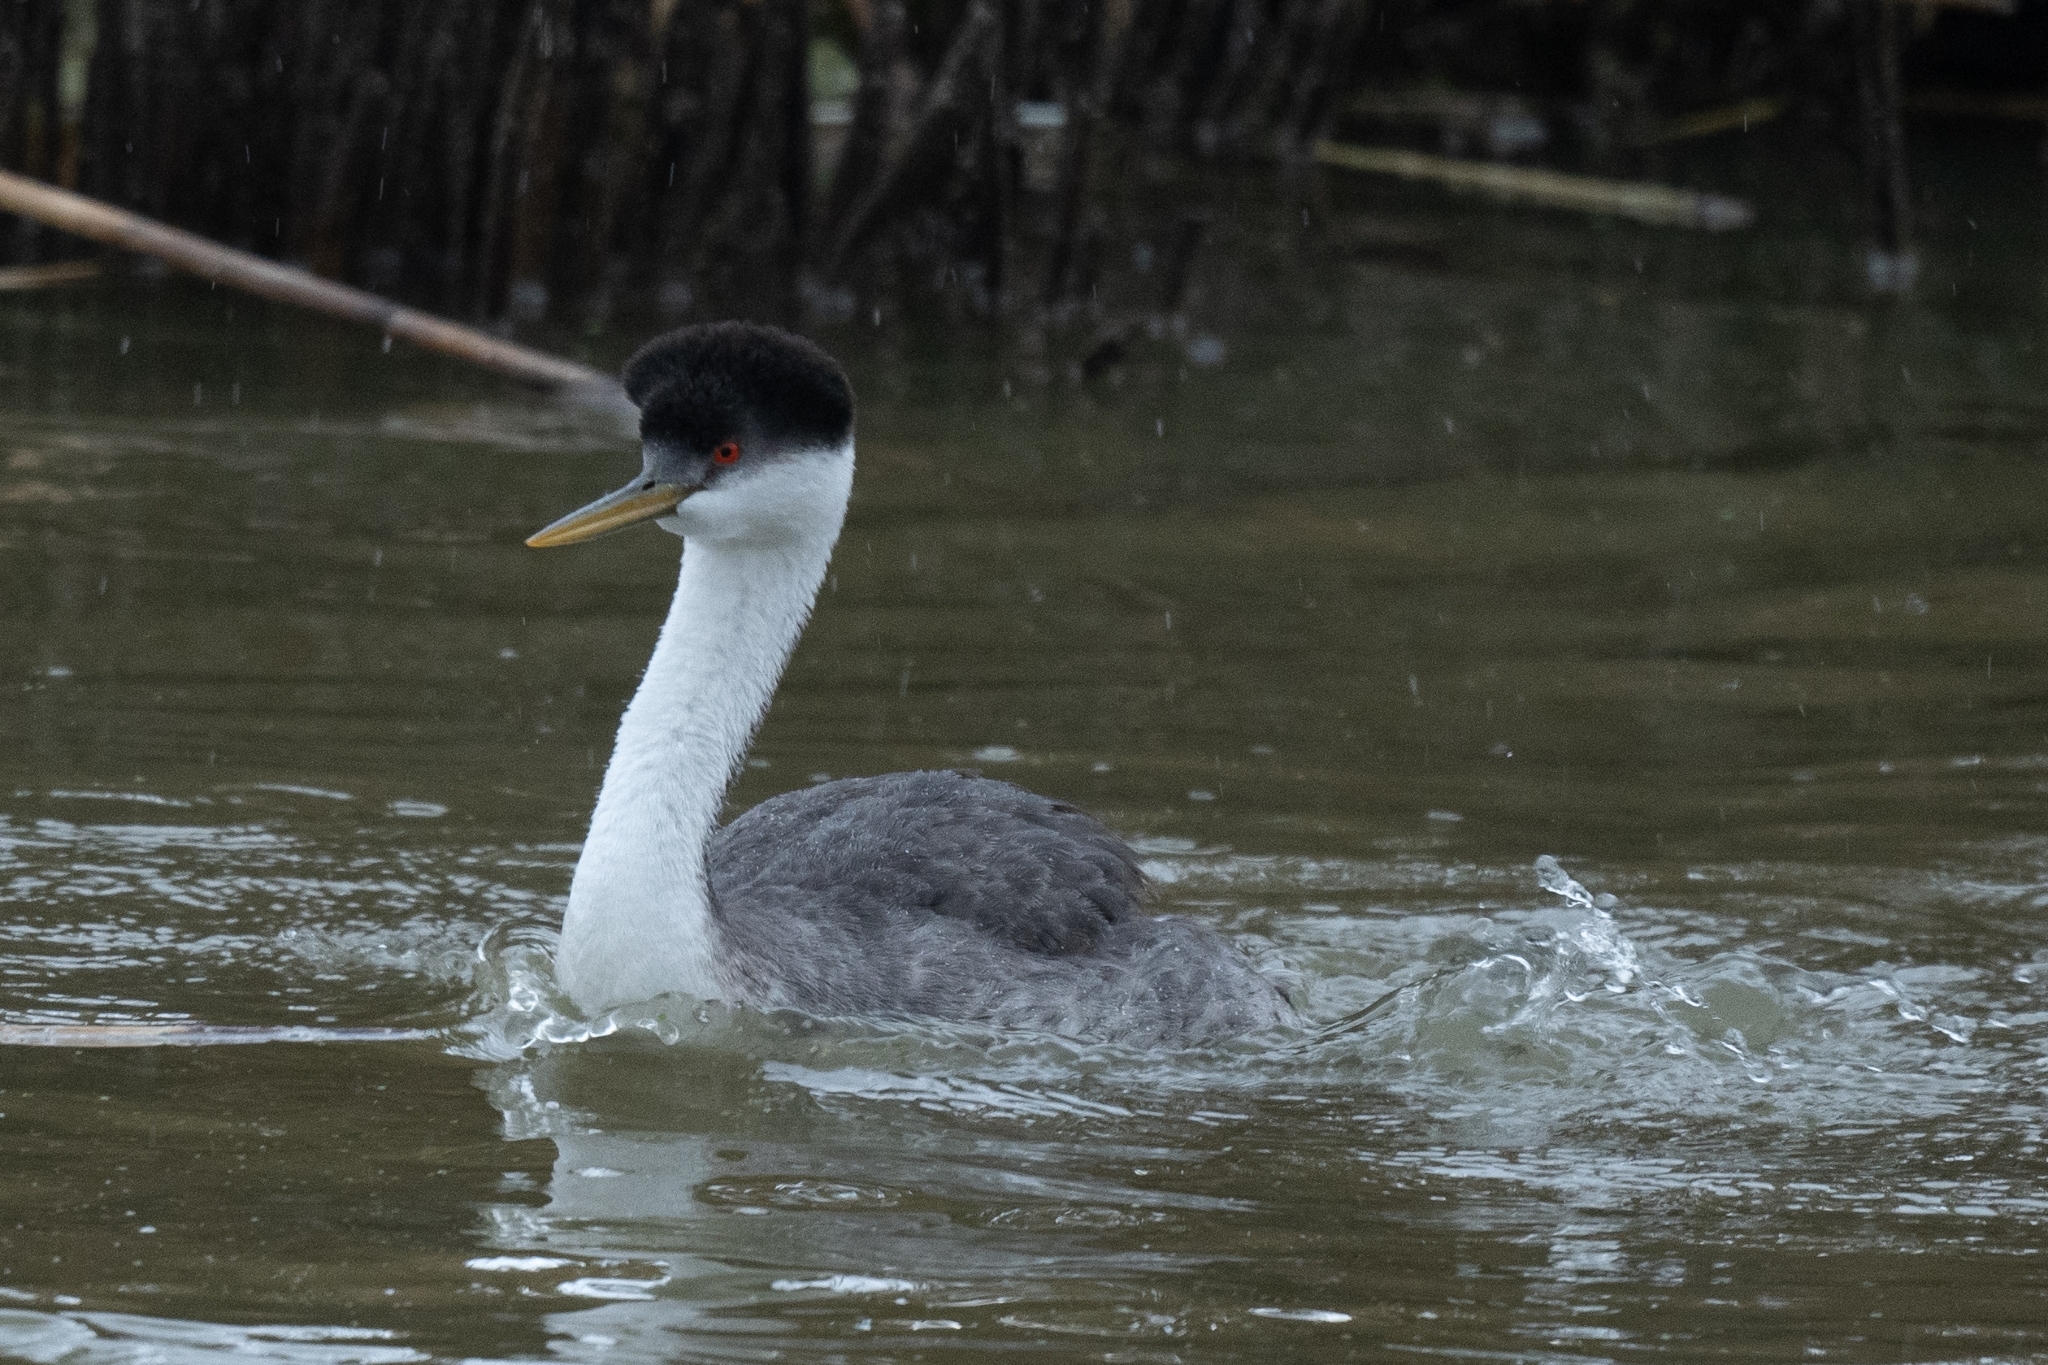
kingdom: Animalia
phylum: Chordata
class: Aves
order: Podicipediformes
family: Podicipedidae
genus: Aechmophorus
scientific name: Aechmophorus occidentalis
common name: Western grebe
